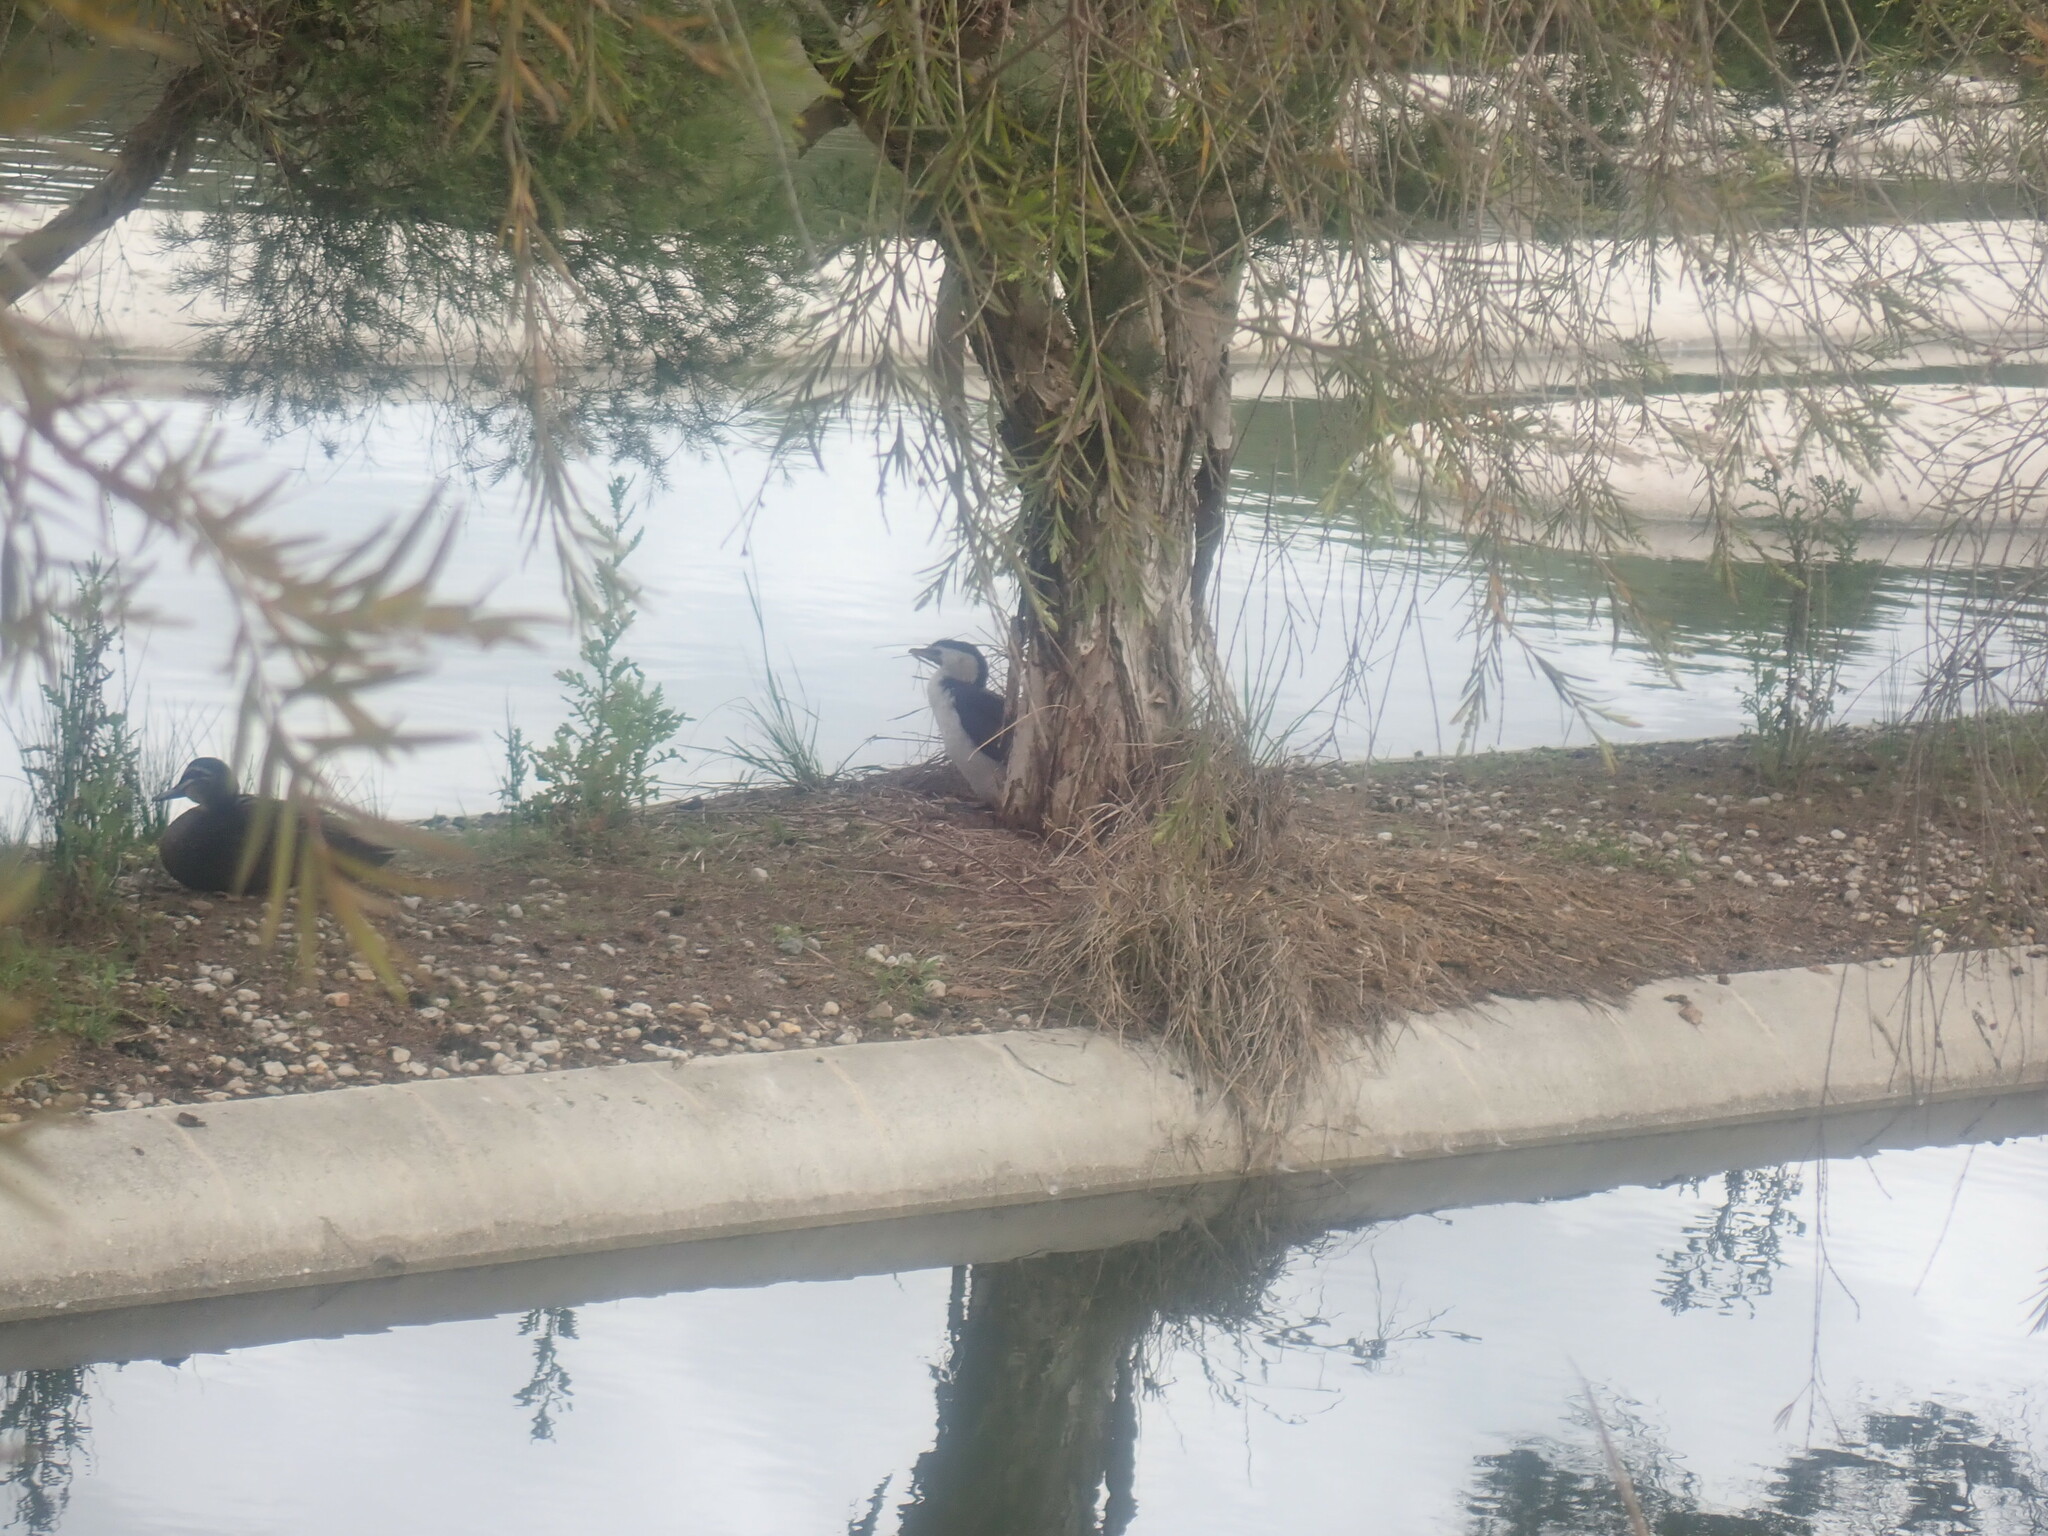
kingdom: Animalia
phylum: Chordata
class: Aves
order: Suliformes
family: Phalacrocoracidae
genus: Microcarbo
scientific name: Microcarbo melanoleucos
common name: Little pied cormorant
